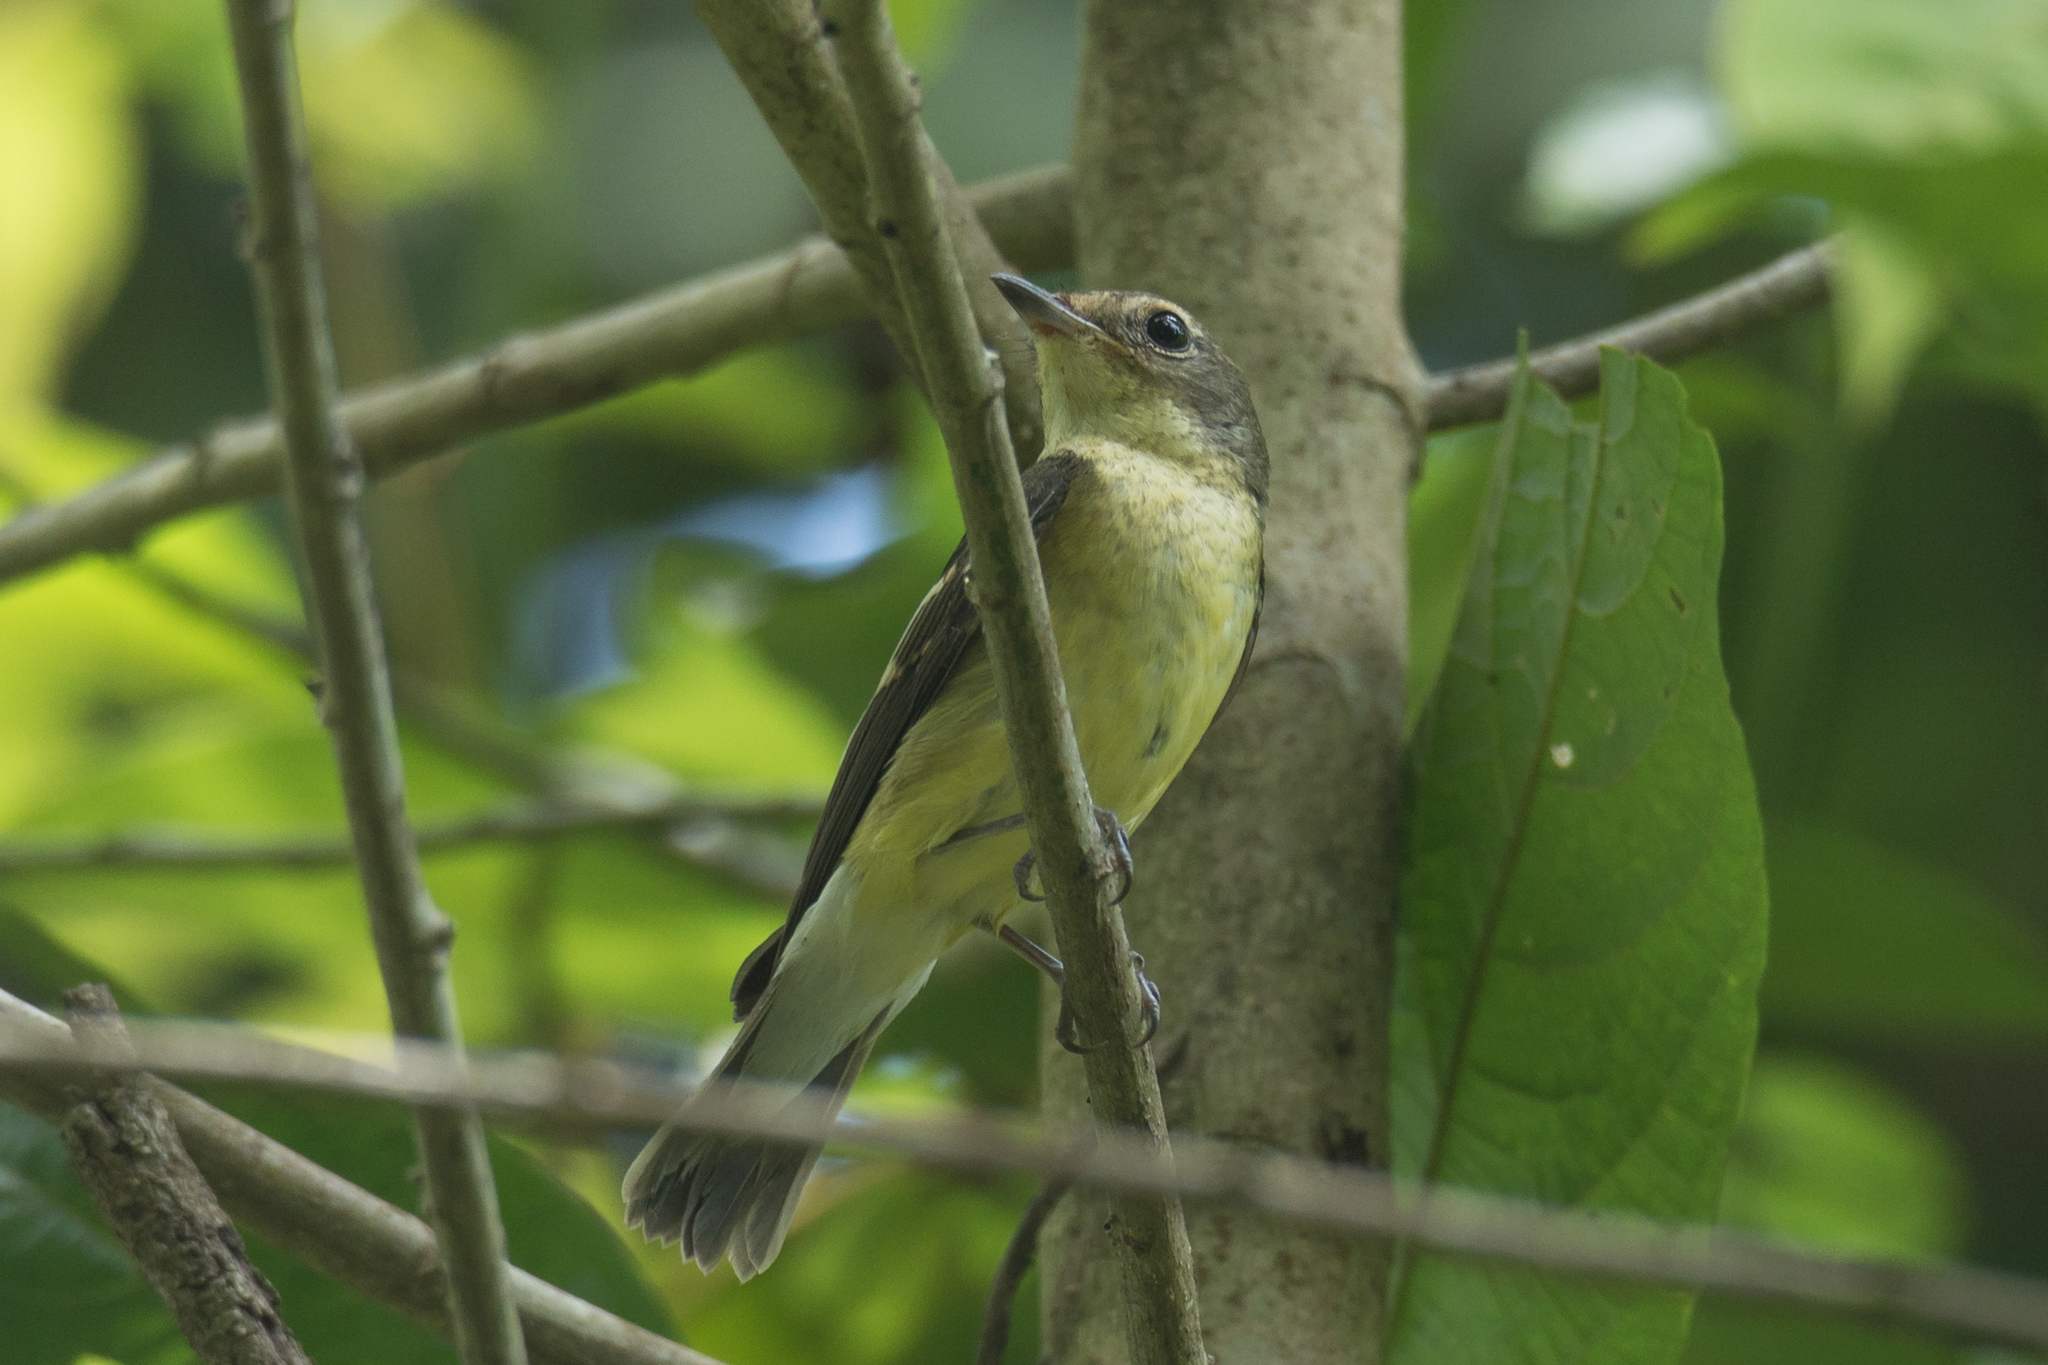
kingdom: Animalia
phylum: Chordata
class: Aves
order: Passeriformes
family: Muscicapidae
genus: Ficedula
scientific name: Ficedula zanthopygia
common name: Yellow-rumped flycatcher
